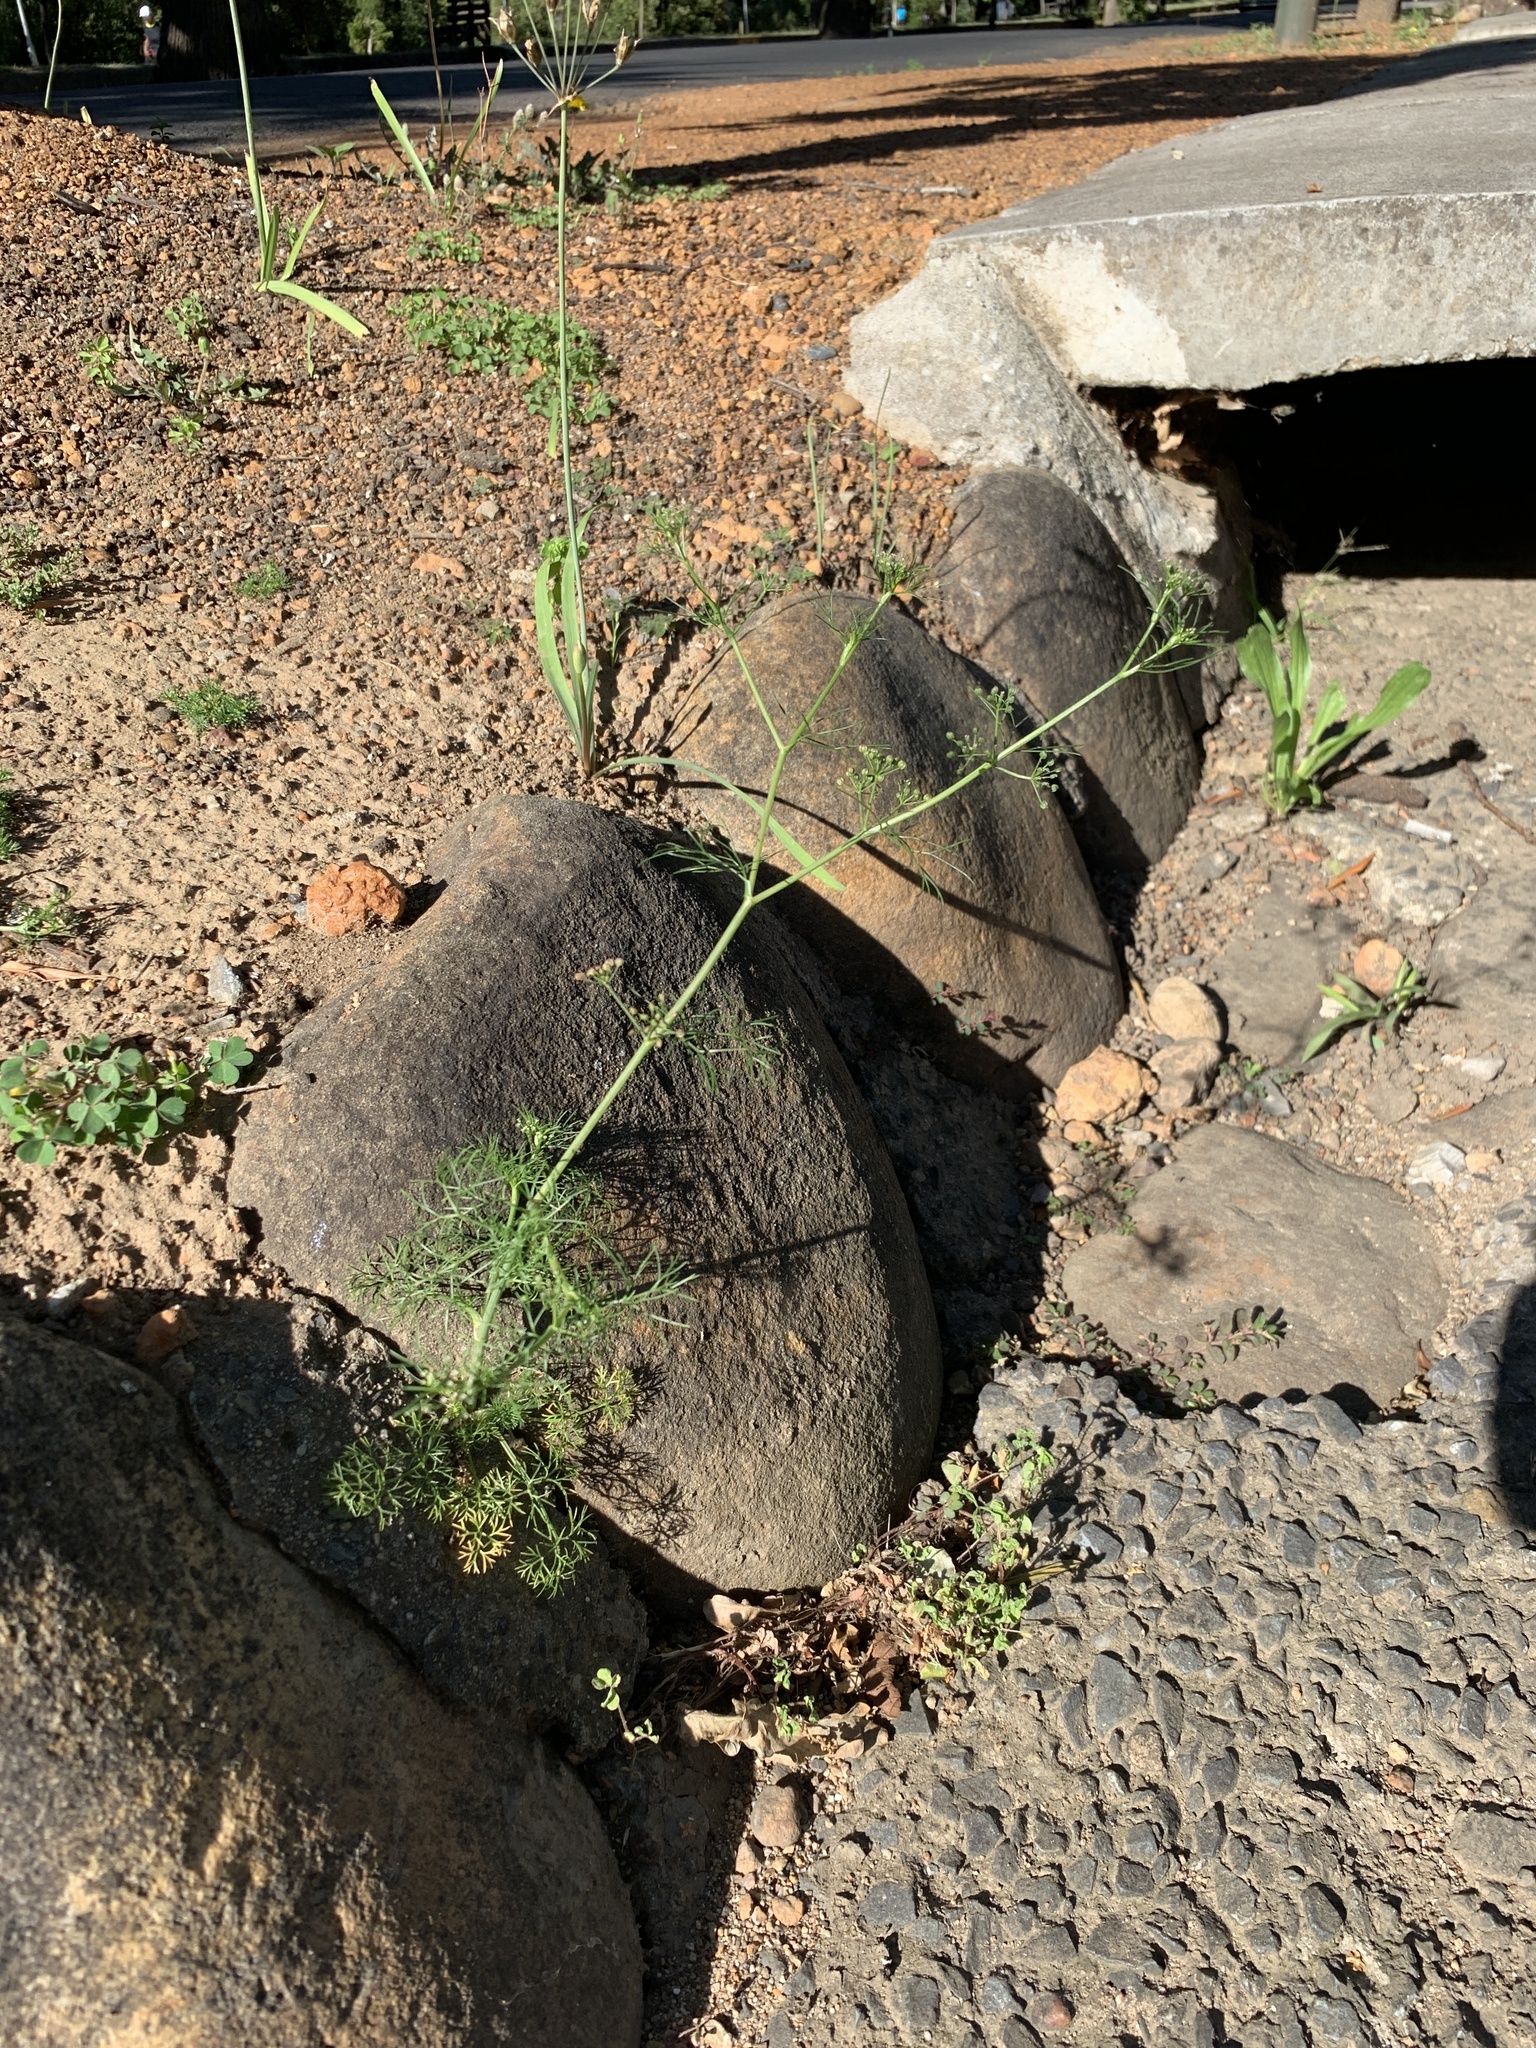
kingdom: Plantae
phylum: Tracheophyta
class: Magnoliopsida
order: Apiales
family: Apiaceae
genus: Cyclospermum
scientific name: Cyclospermum leptophyllum
